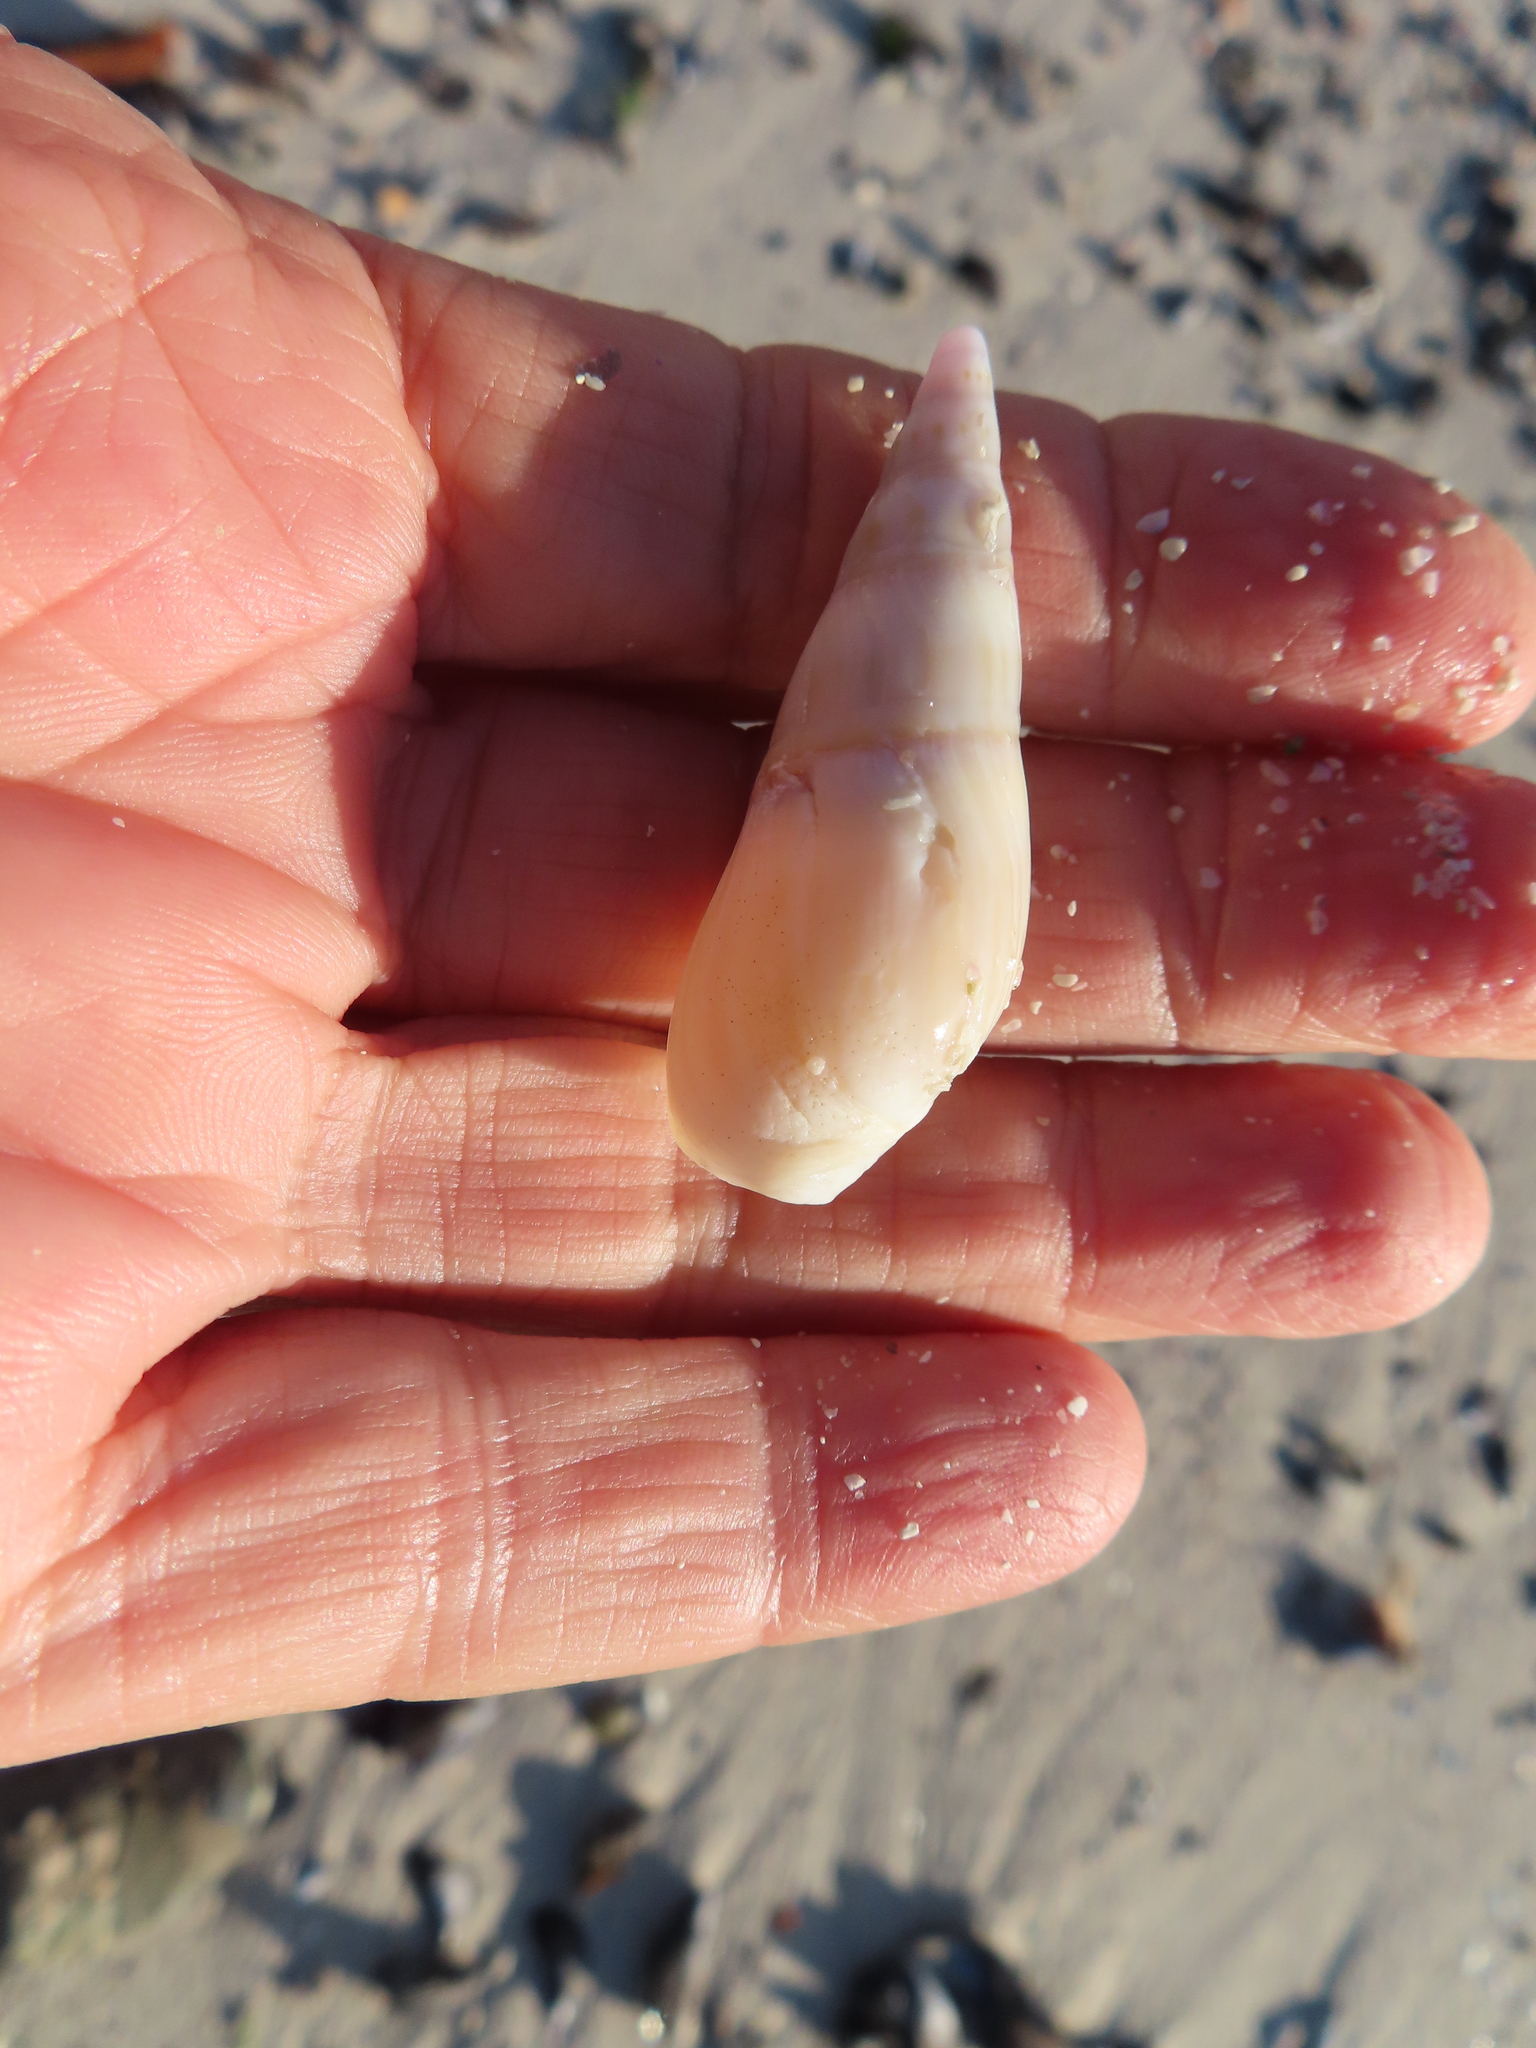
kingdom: Animalia
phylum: Mollusca
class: Gastropoda
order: Neogastropoda
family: Nassariidae
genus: Bullia
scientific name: Bullia digitalis
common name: Finger plough shell
